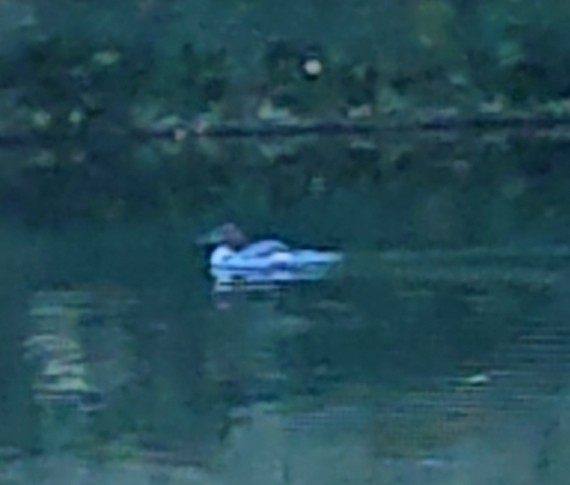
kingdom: Animalia
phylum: Chordata
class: Aves
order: Anseriformes
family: Anatidae
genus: Mergus
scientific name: Mergus merganser
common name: Common merganser
